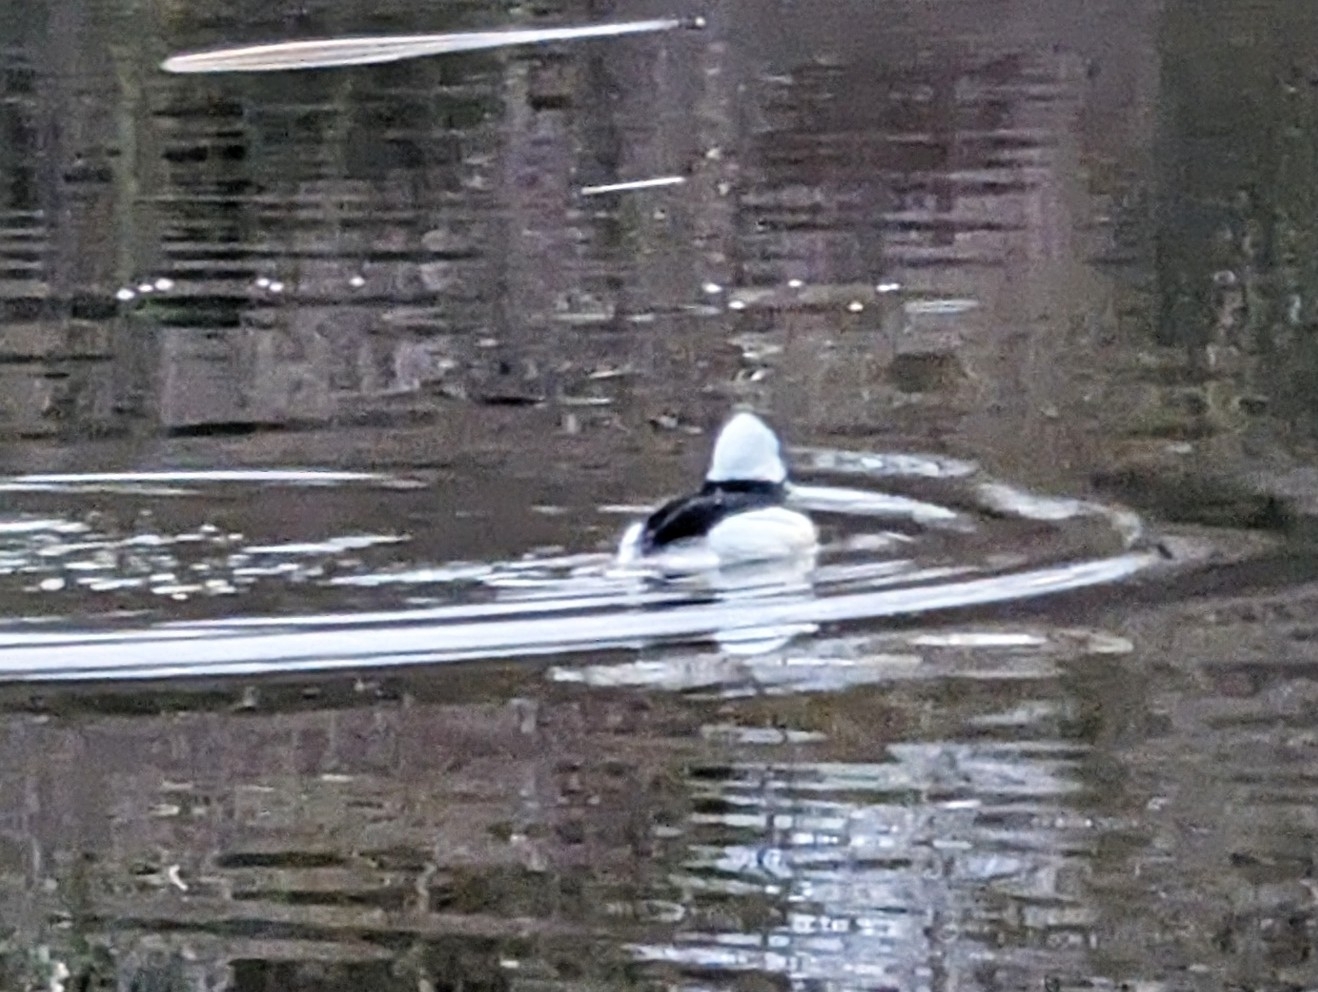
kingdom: Animalia
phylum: Chordata
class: Aves
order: Anseriformes
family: Anatidae
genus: Bucephala
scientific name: Bucephala albeola
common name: Bufflehead
